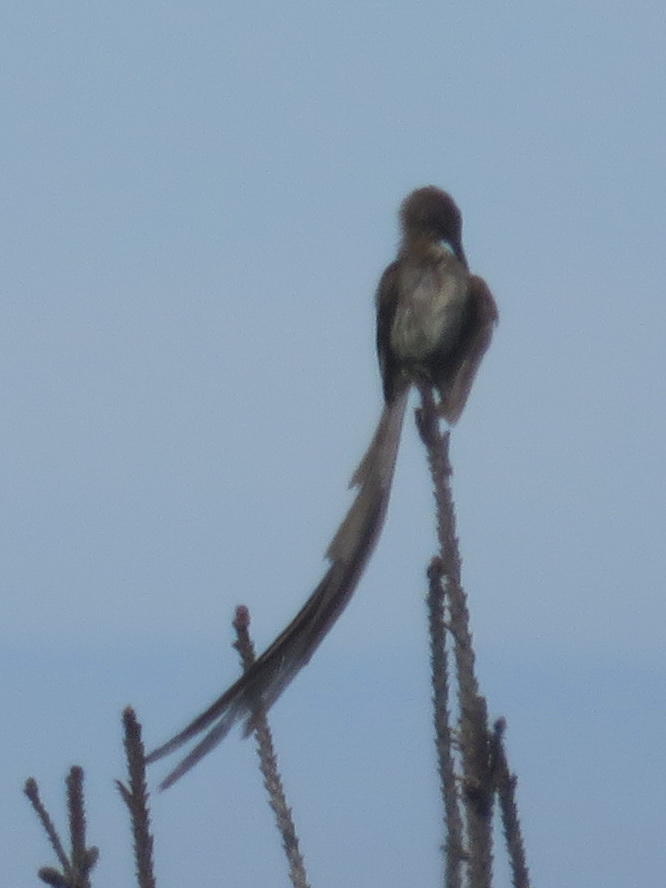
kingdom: Animalia
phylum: Chordata
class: Aves
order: Passeriformes
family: Promeropidae
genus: Promerops
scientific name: Promerops cafer
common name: Cape sugarbird
